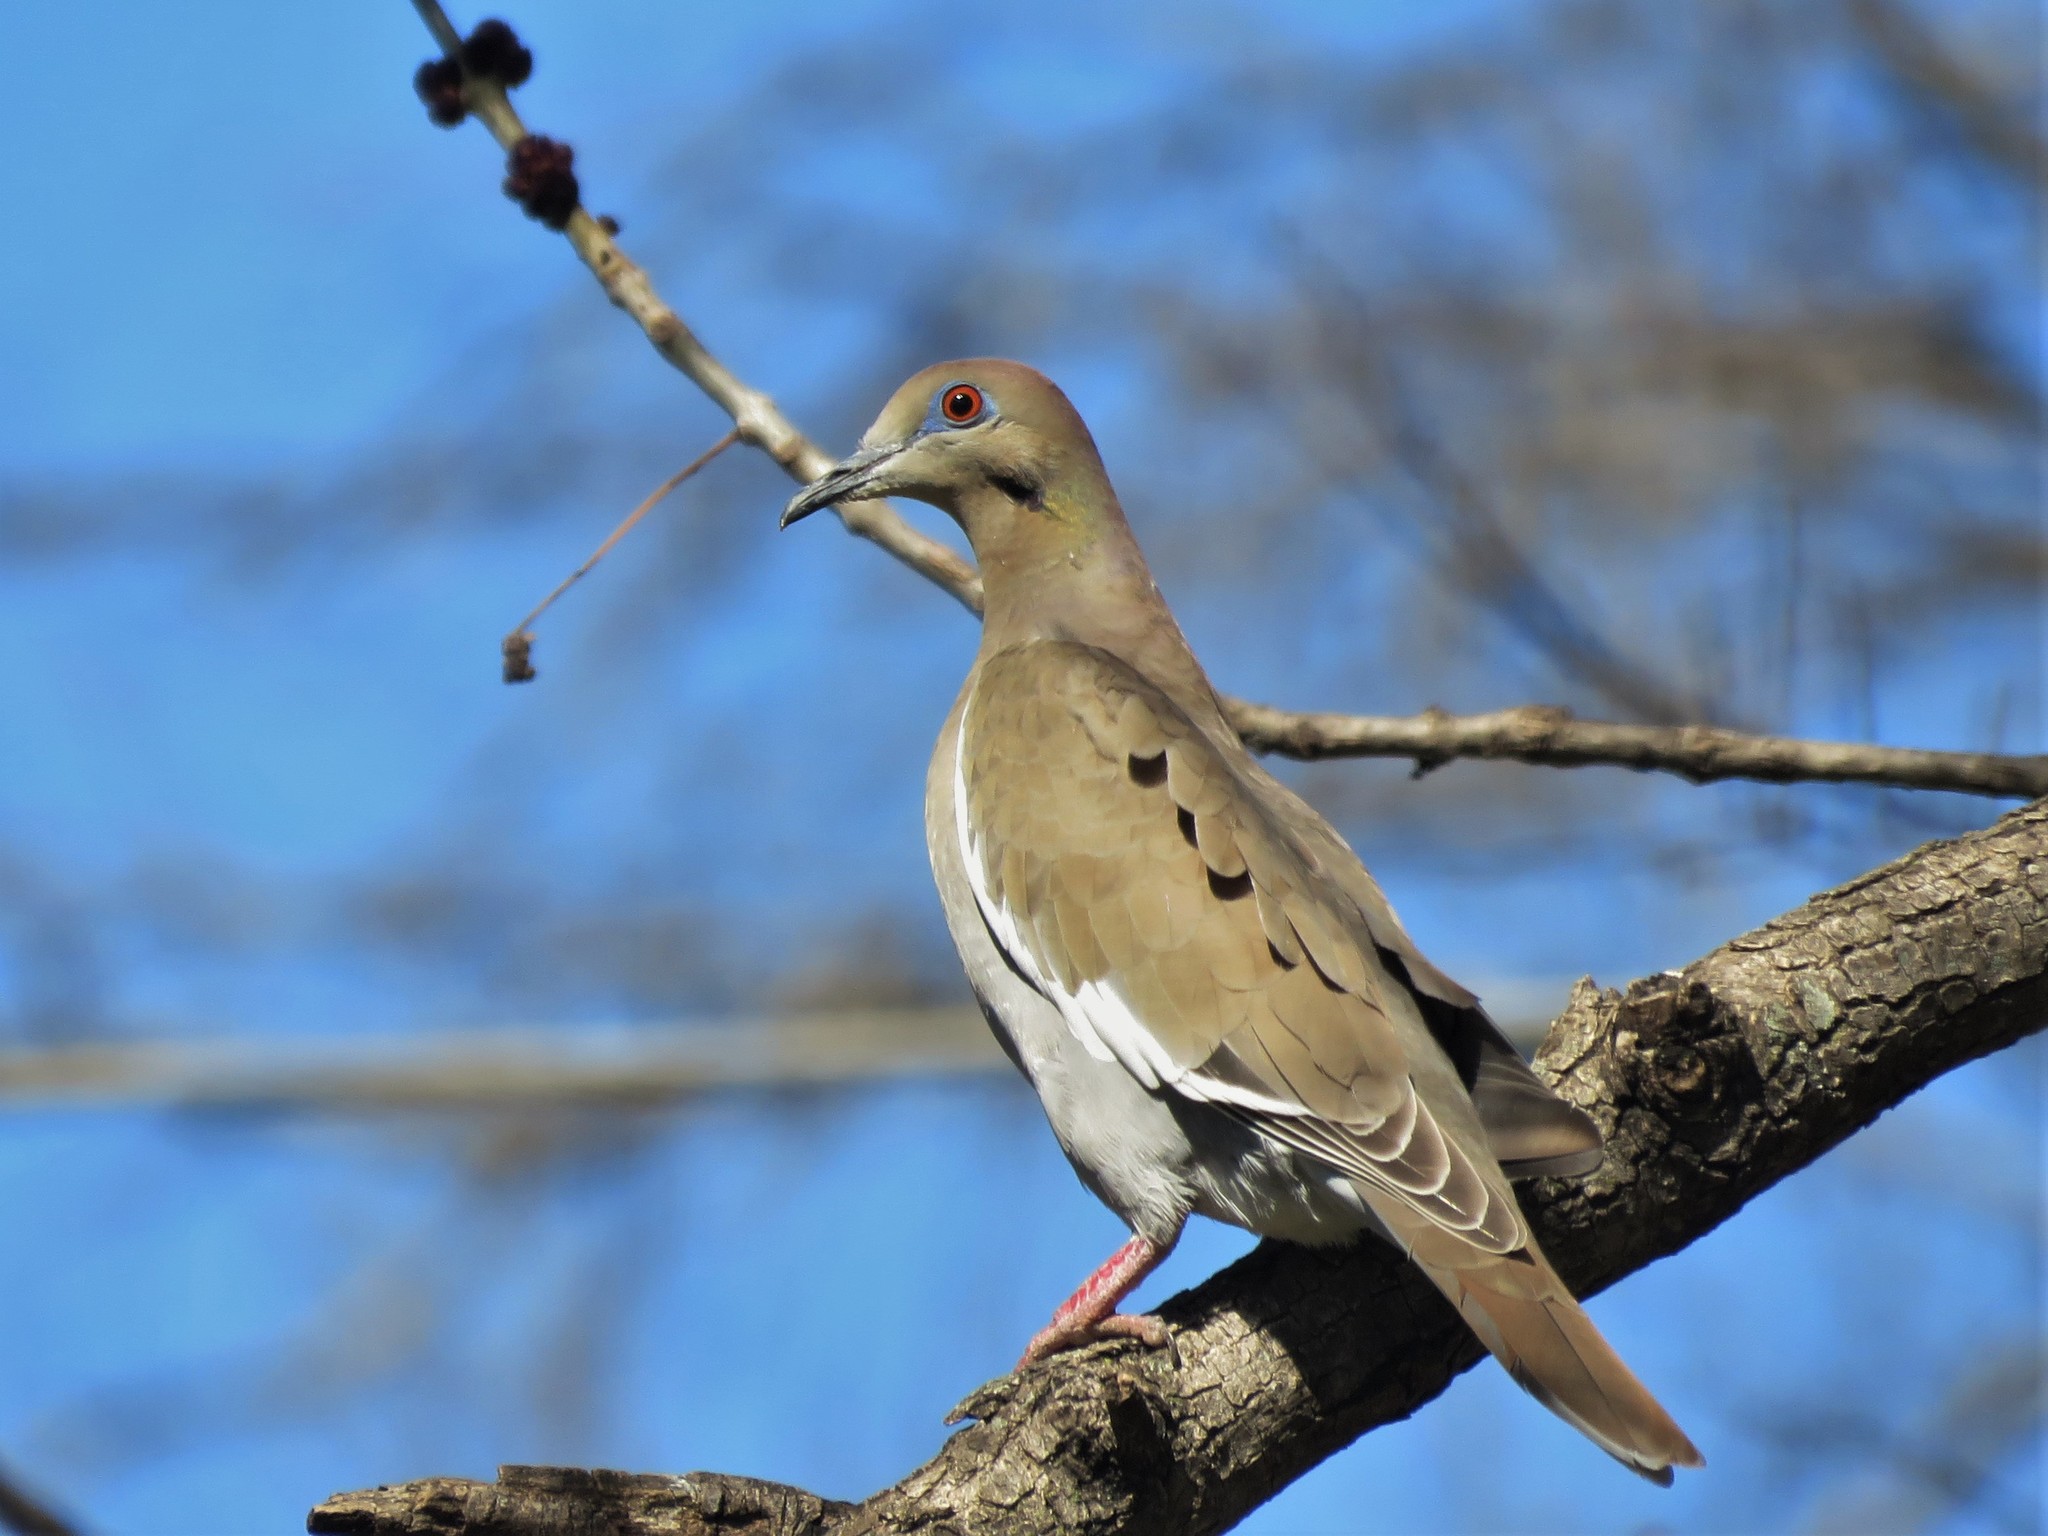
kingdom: Animalia
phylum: Chordata
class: Aves
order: Columbiformes
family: Columbidae
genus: Zenaida
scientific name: Zenaida asiatica
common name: White-winged dove
